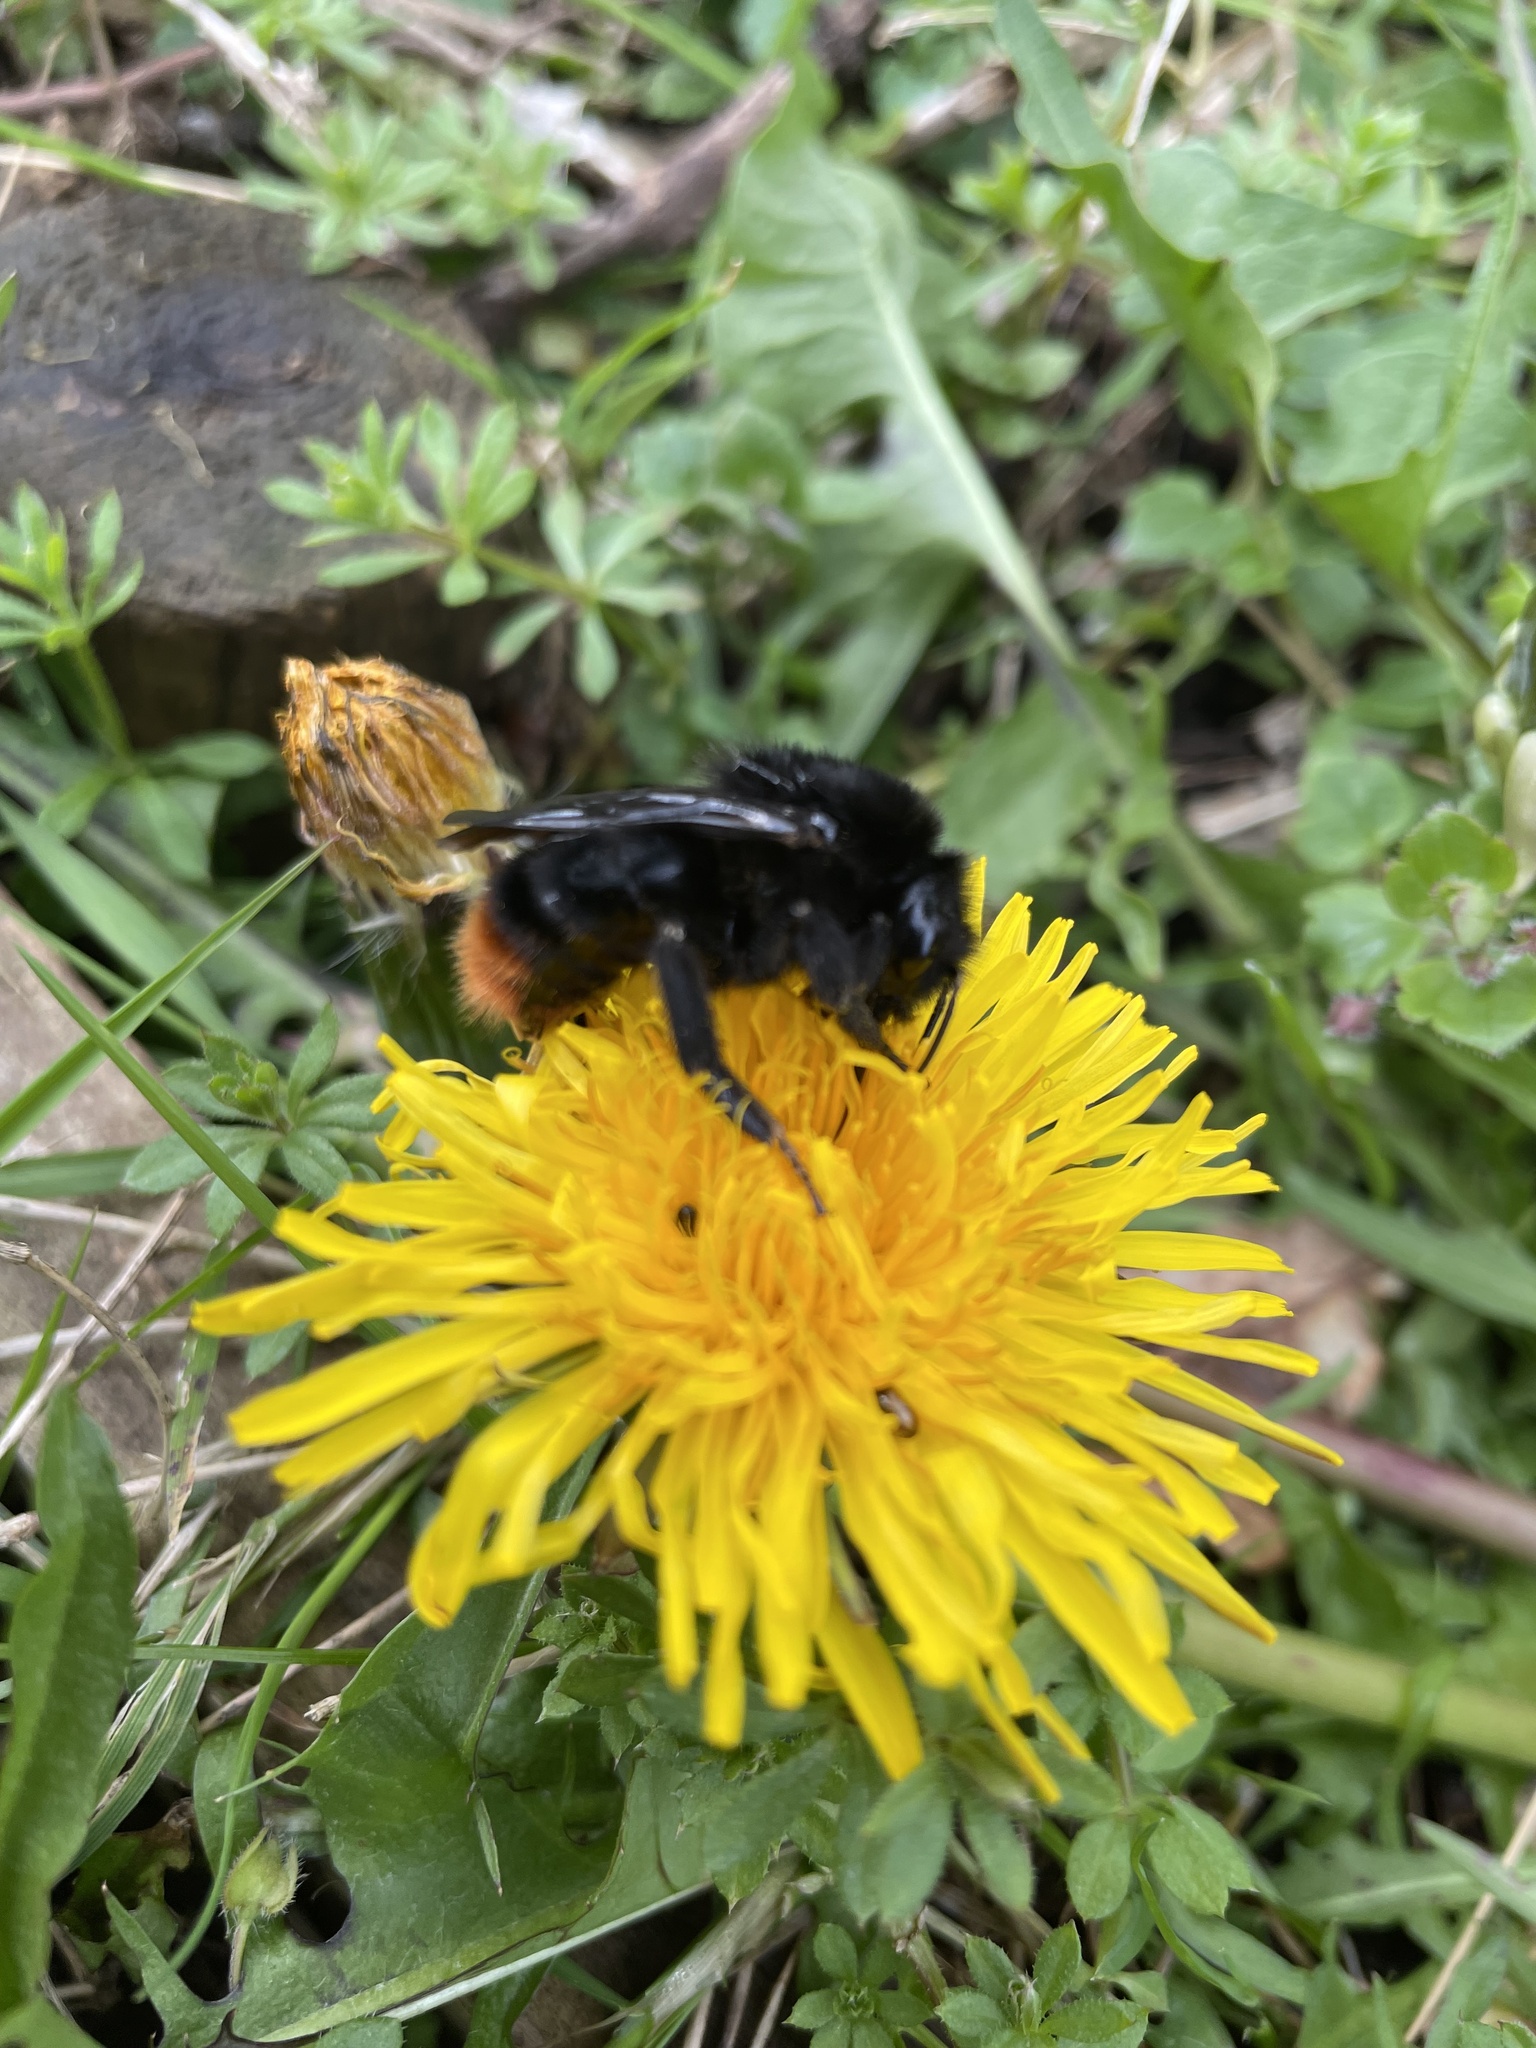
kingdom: Animalia
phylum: Arthropoda
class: Insecta
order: Hymenoptera
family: Apidae
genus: Bombus
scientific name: Bombus lapidarius
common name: Large red-tailed humble-bee
